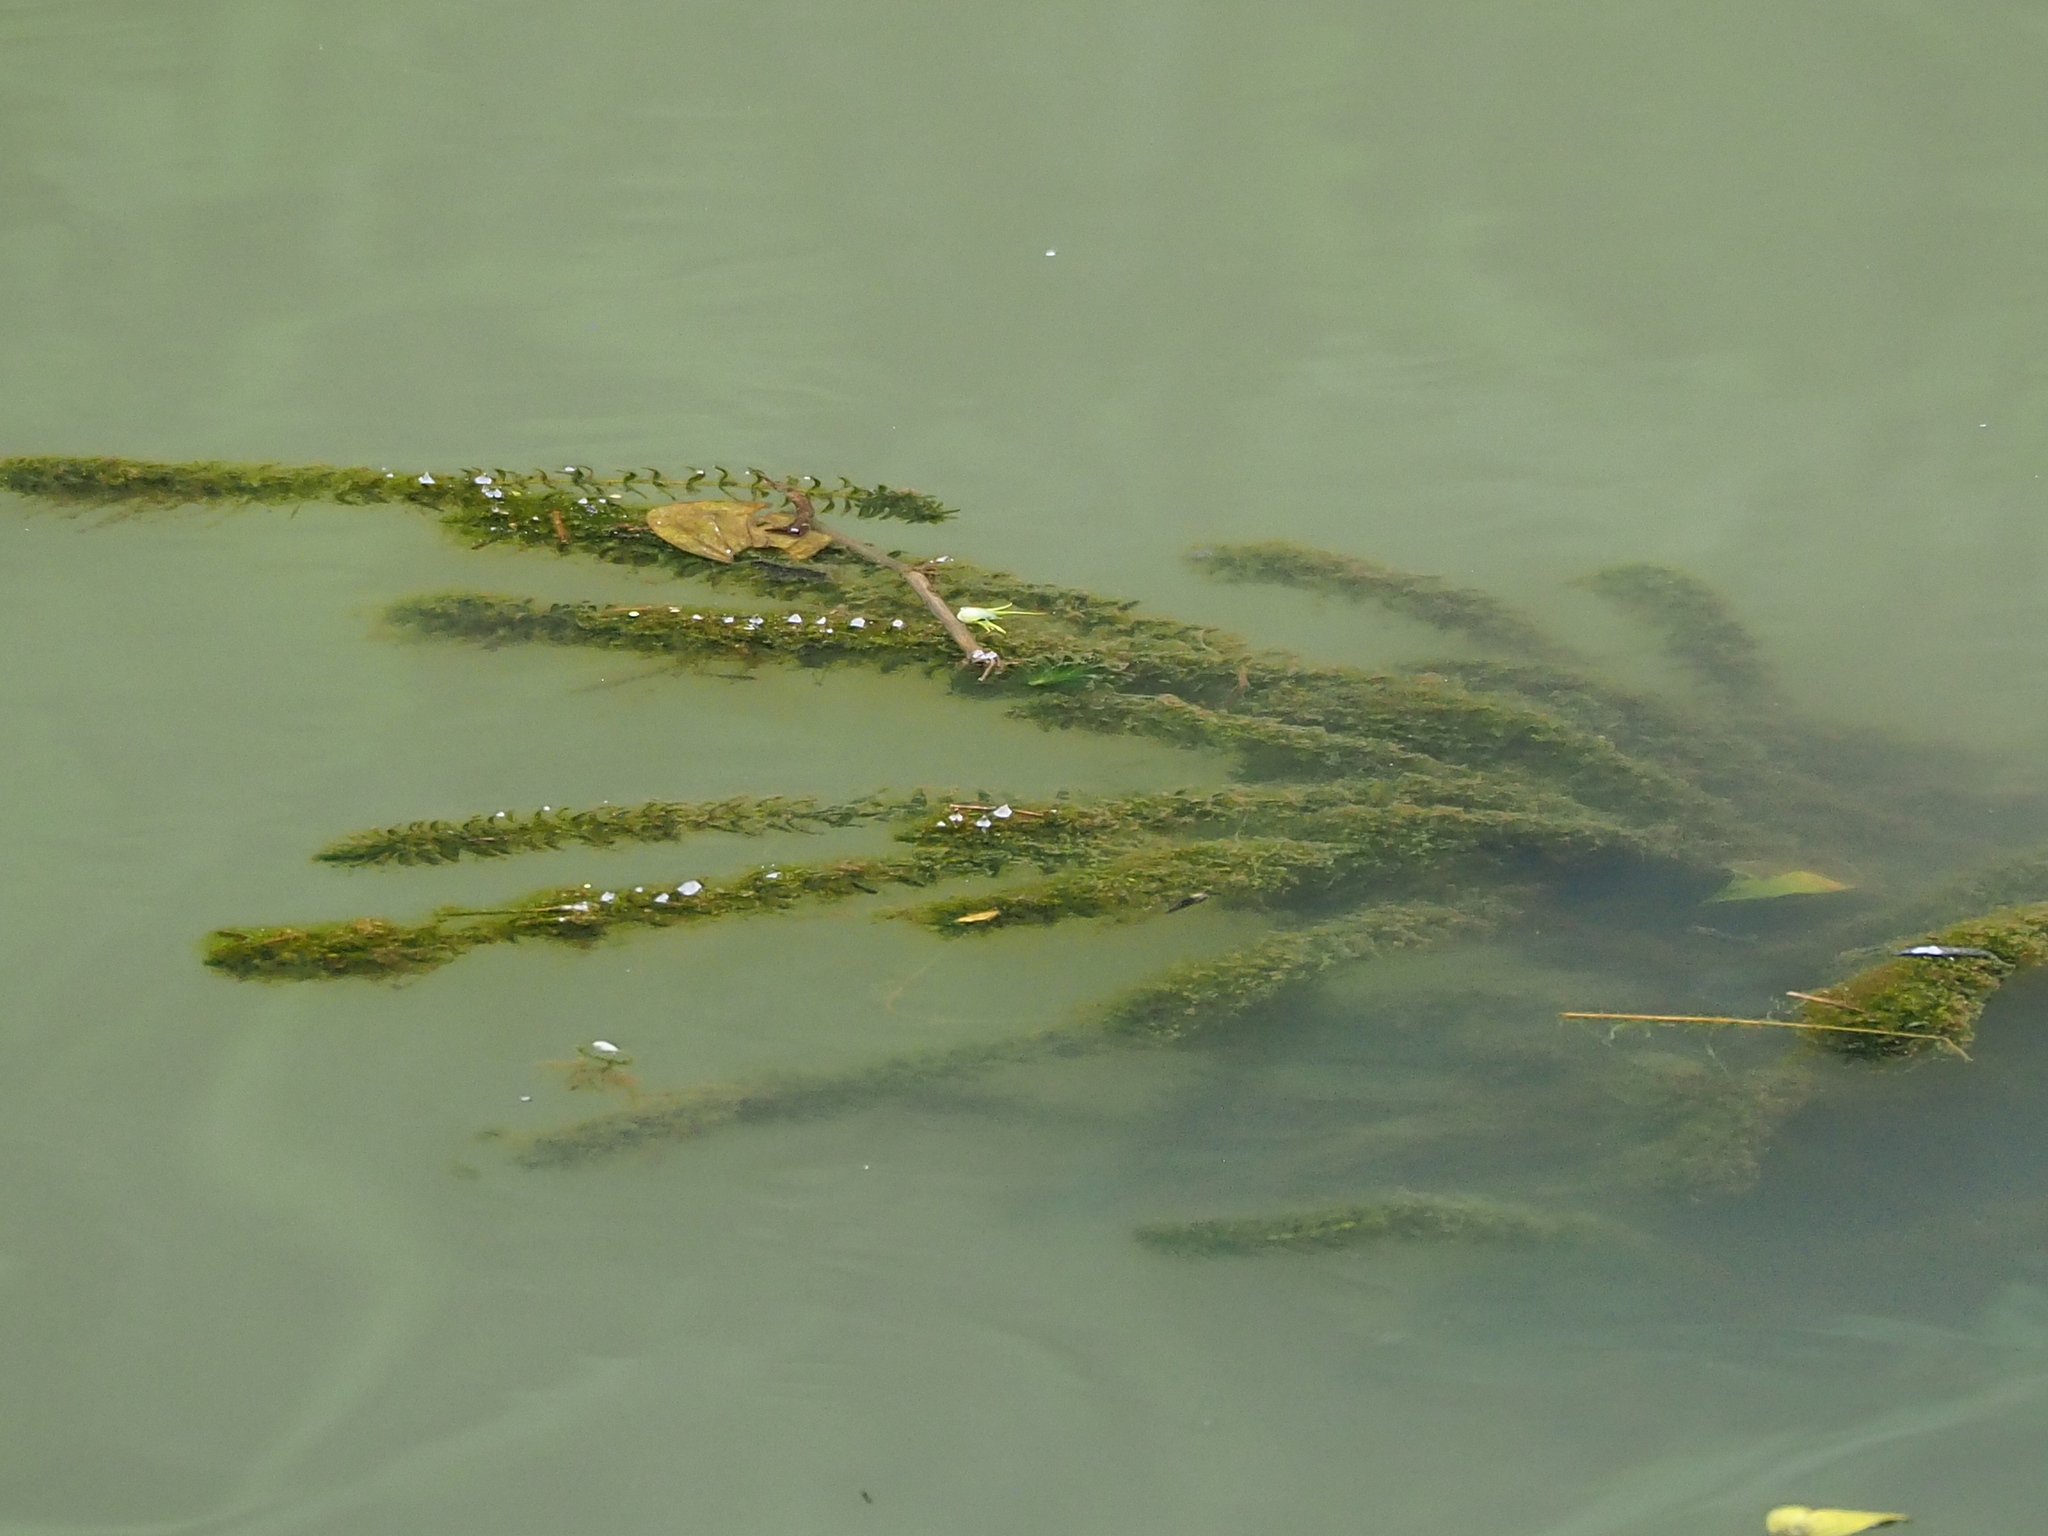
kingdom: Plantae
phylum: Tracheophyta
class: Liliopsida
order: Alismatales
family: Hydrocharitaceae
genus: Elodea
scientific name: Elodea densa
